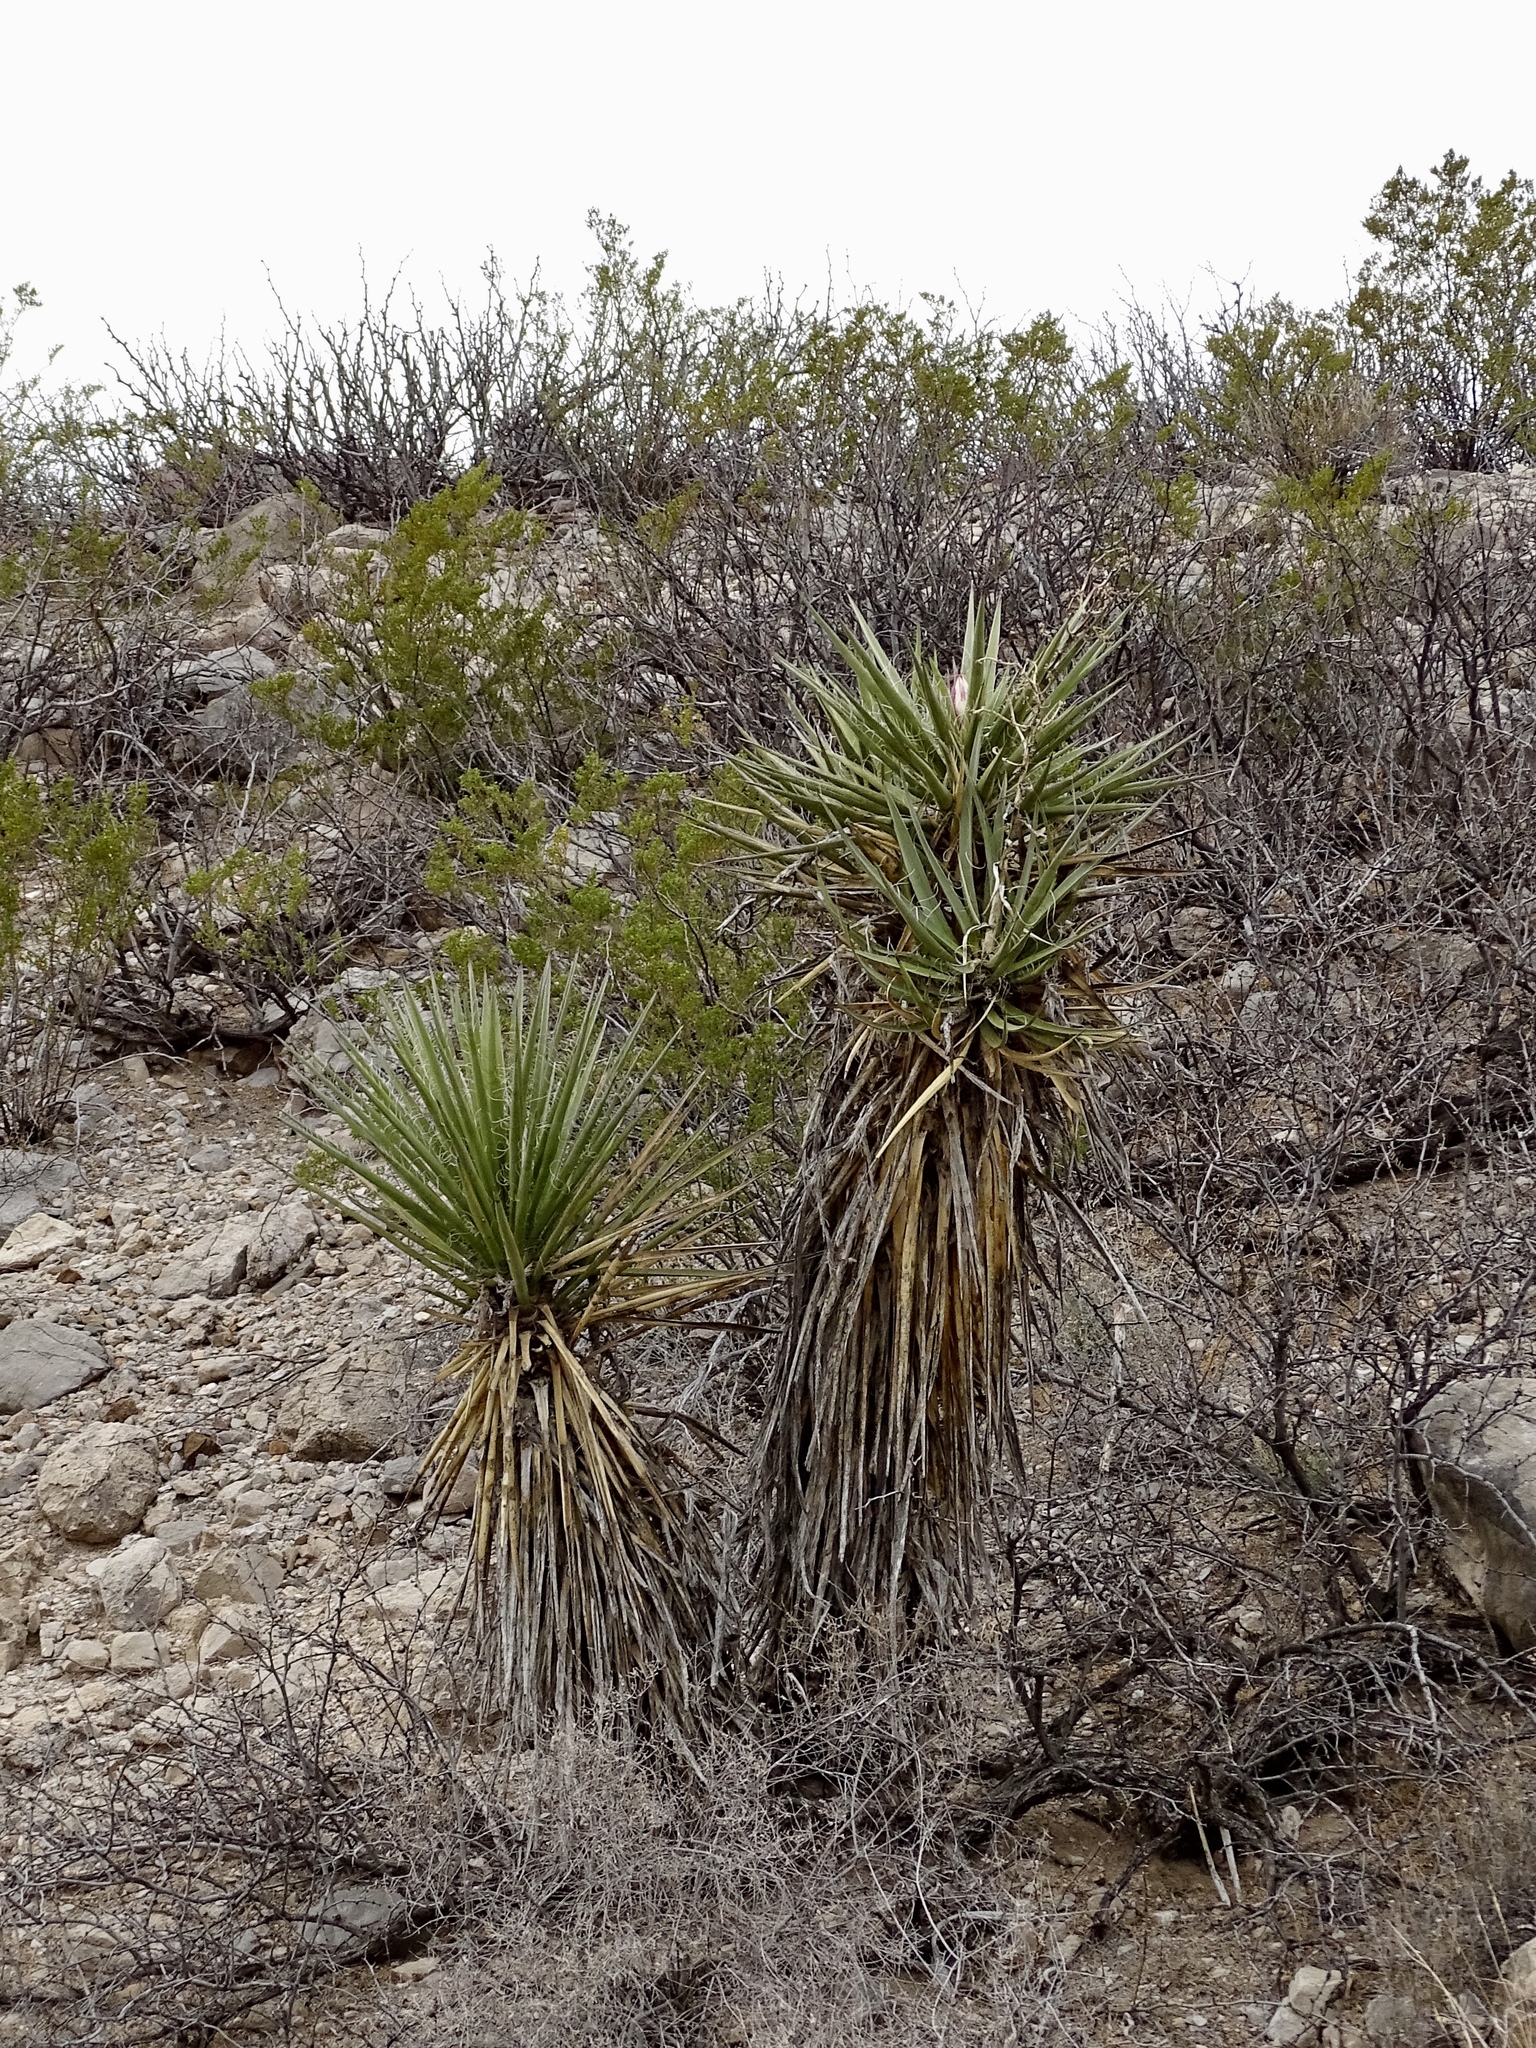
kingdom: Plantae
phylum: Tracheophyta
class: Liliopsida
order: Asparagales
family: Asparagaceae
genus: Yucca
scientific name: Yucca treculiana
